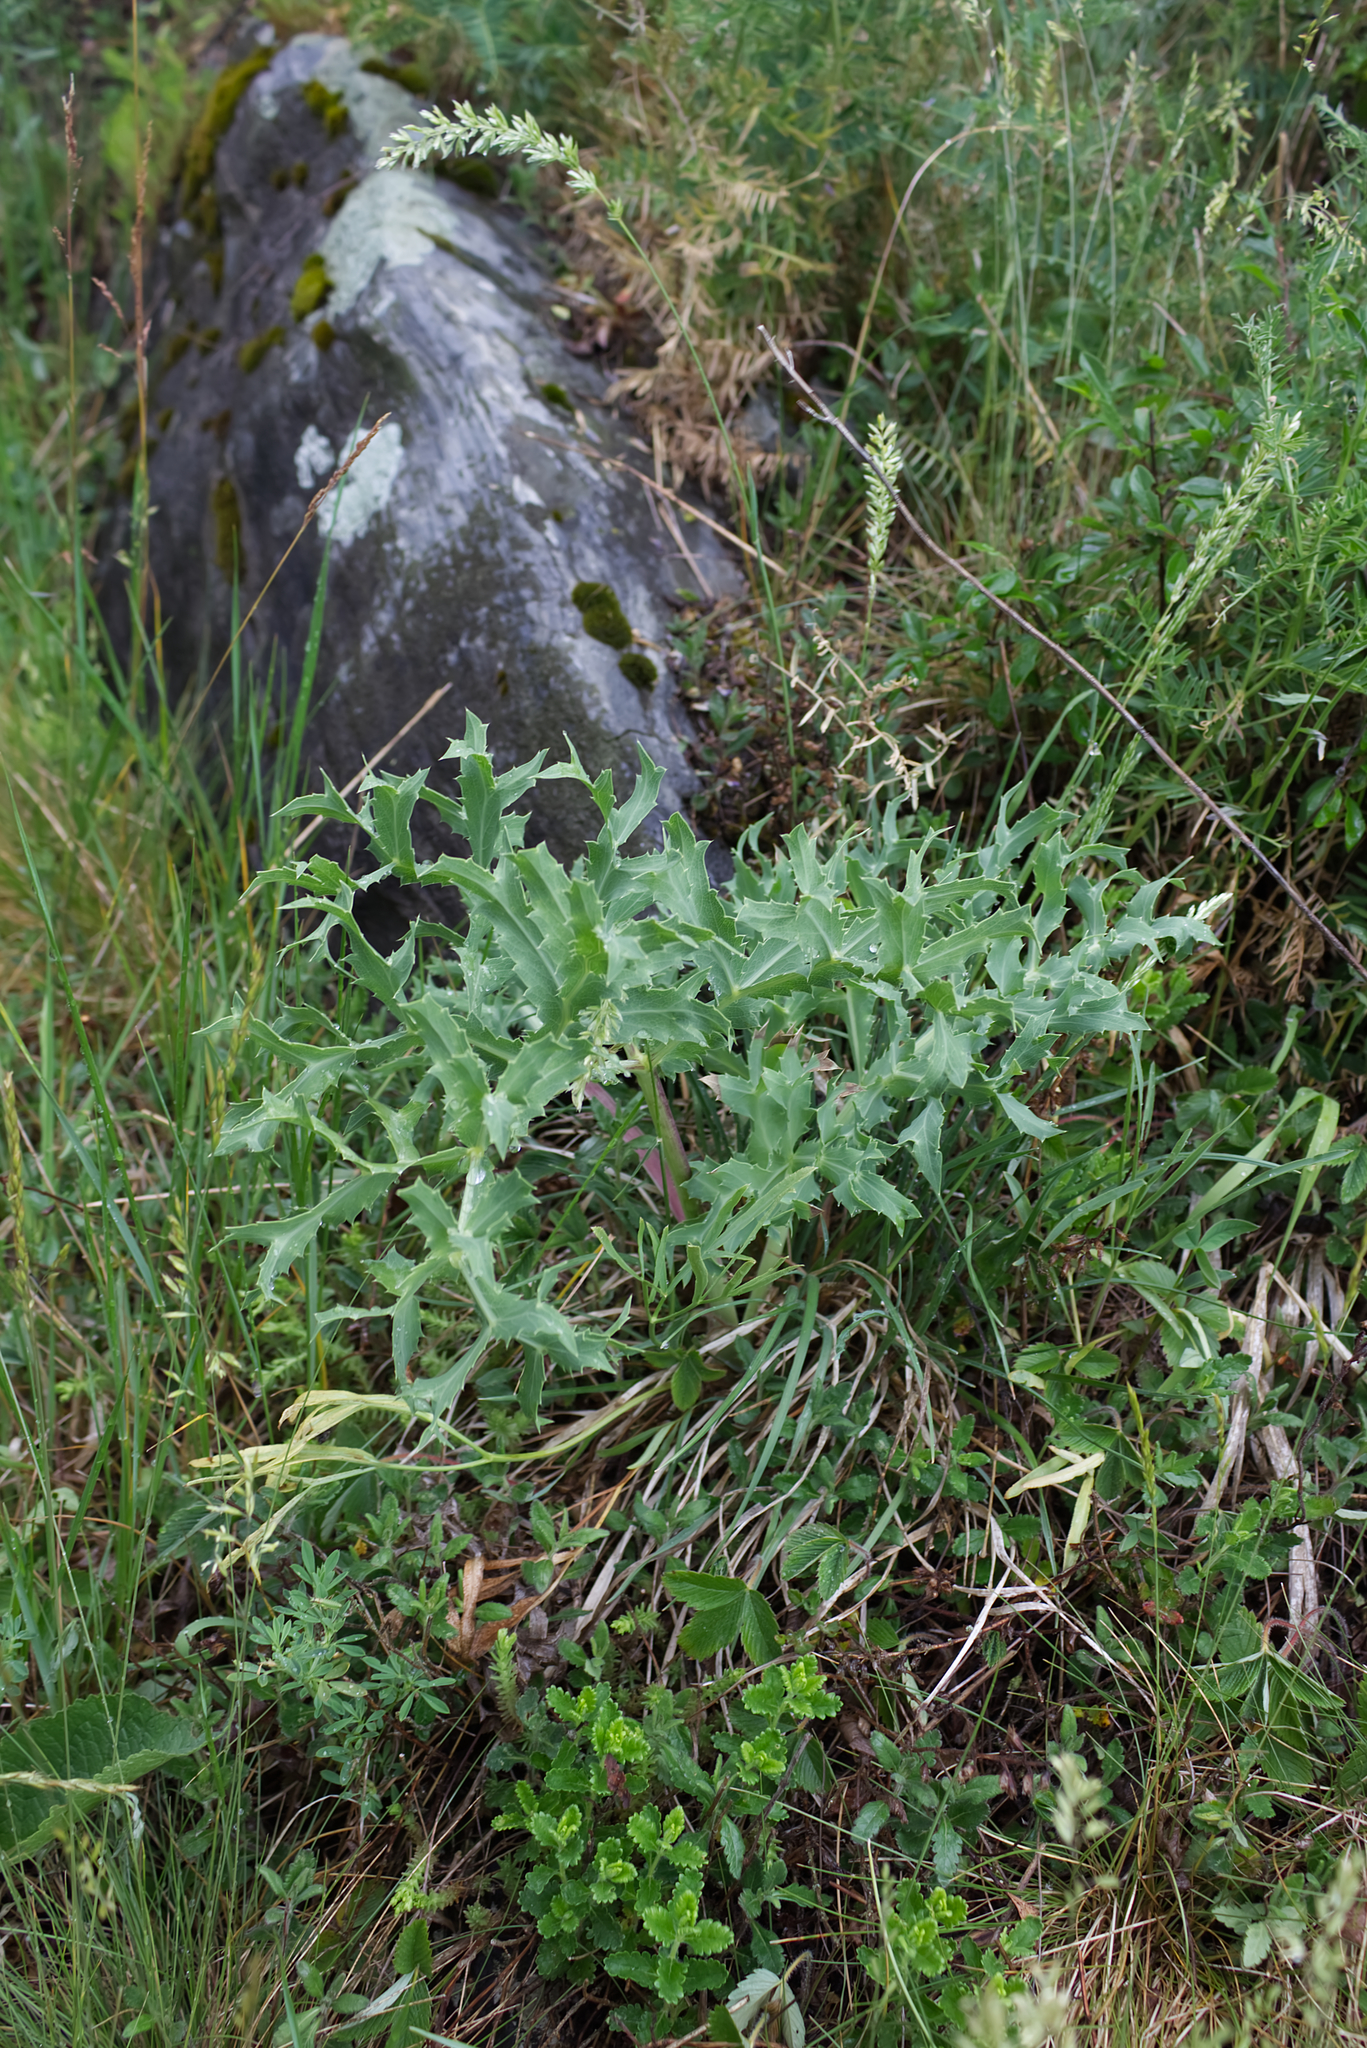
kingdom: Plantae
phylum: Tracheophyta
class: Magnoliopsida
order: Apiales
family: Apiaceae
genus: Eryngium
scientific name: Eryngium campestre
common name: Field eryngo
